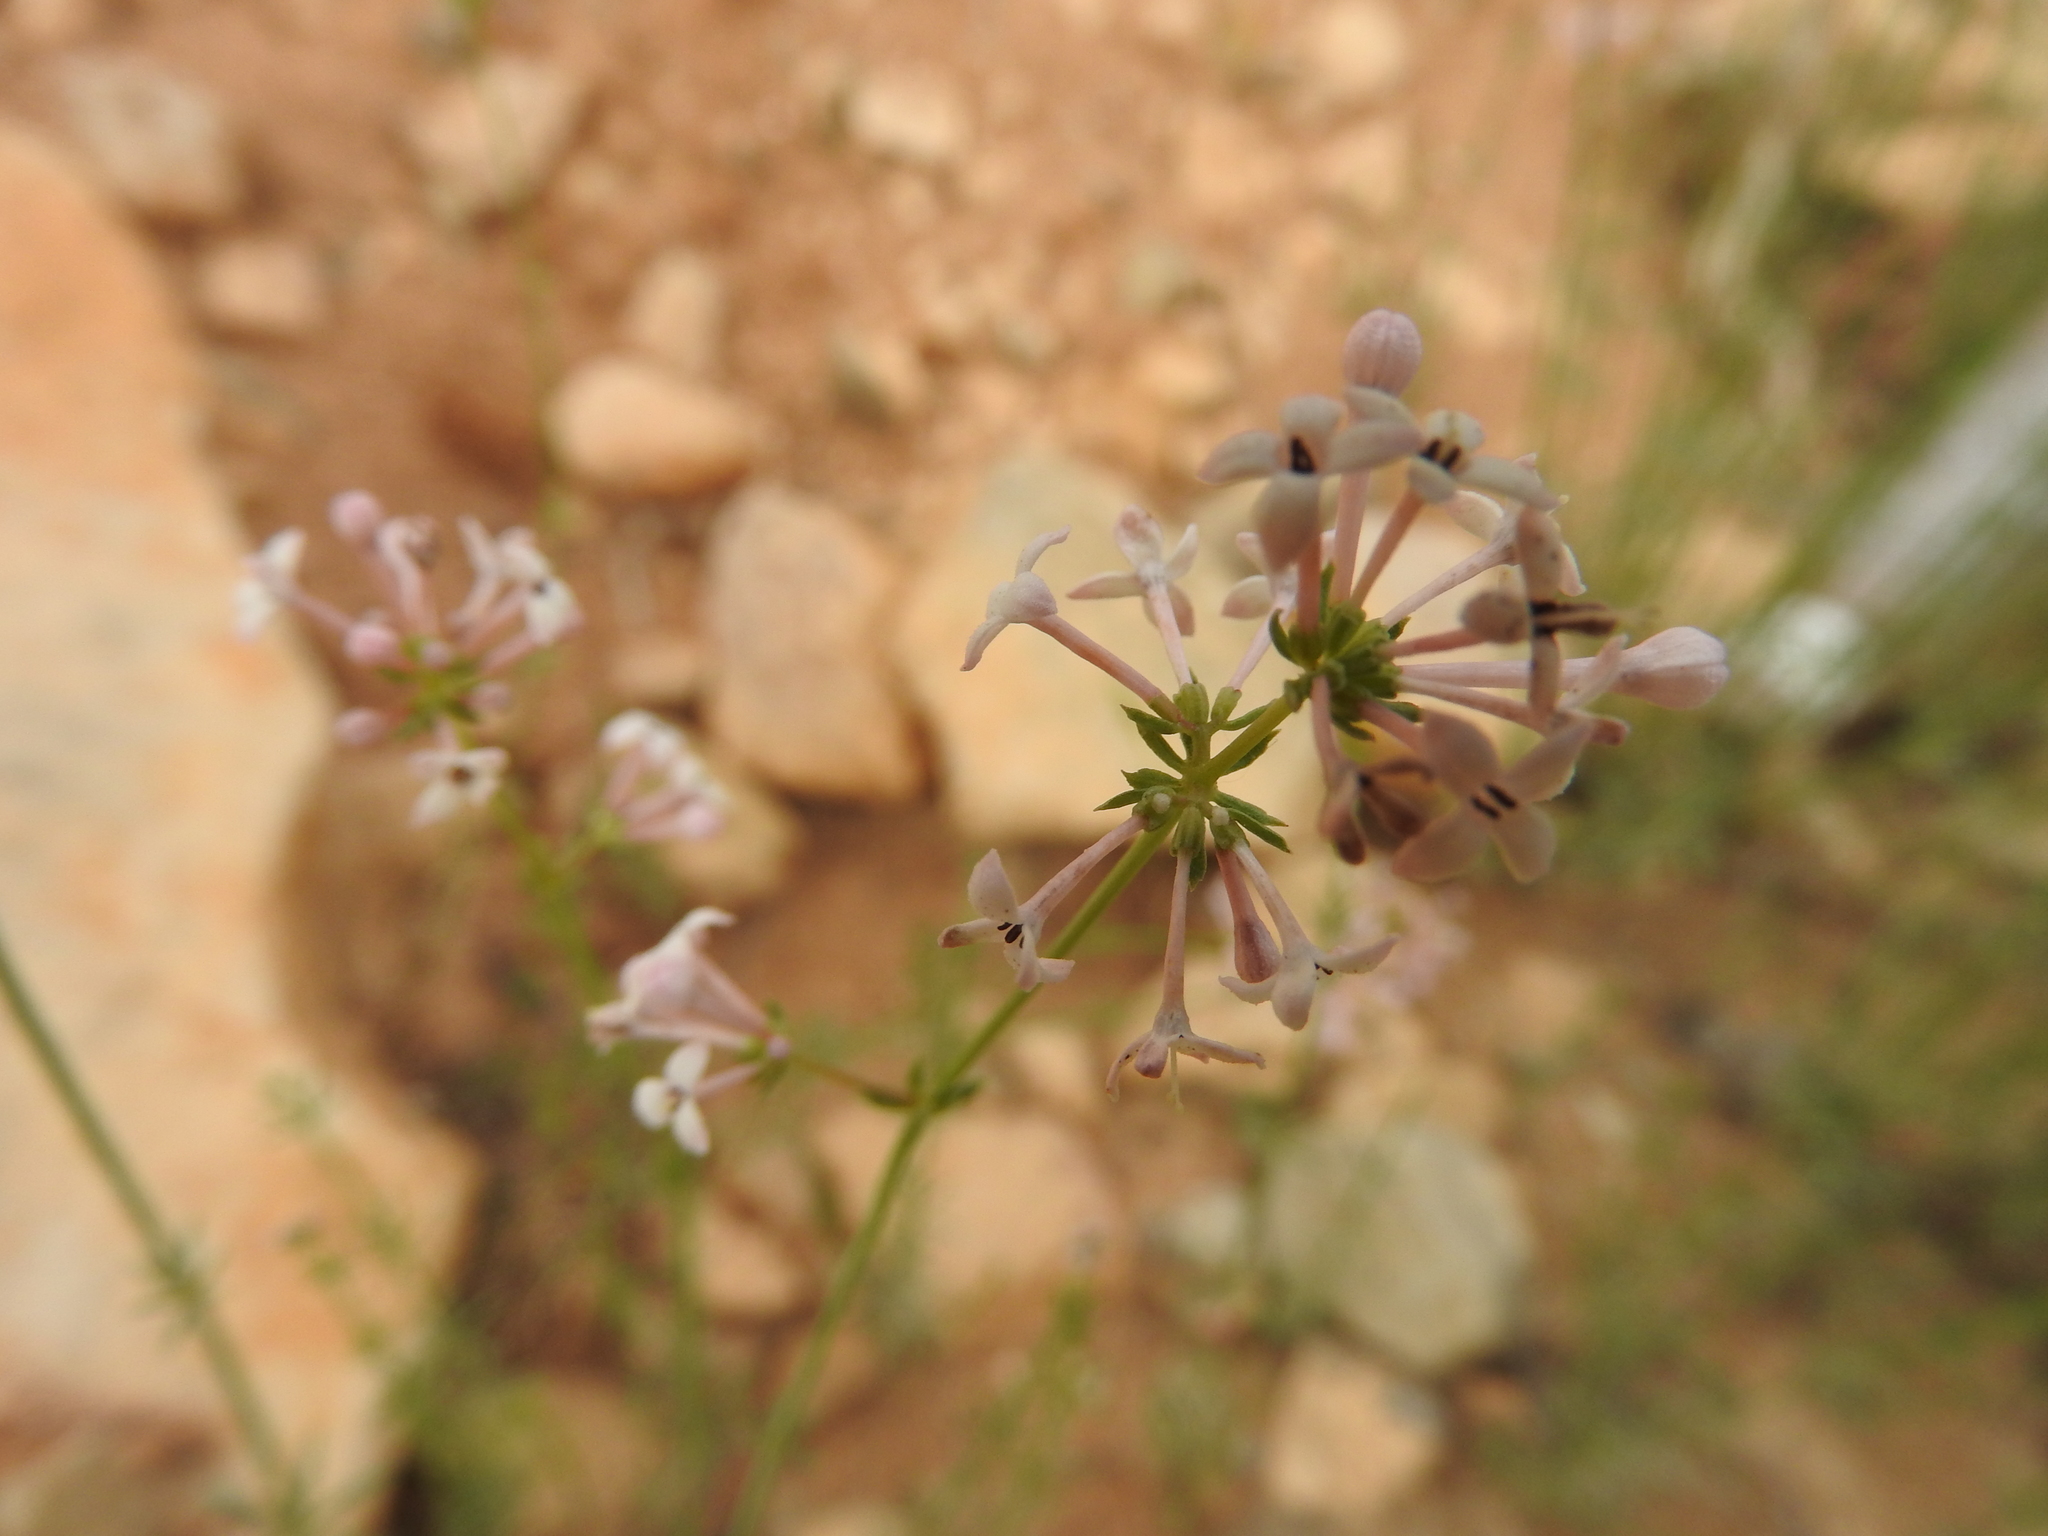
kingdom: Plantae
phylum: Tracheophyta
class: Magnoliopsida
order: Gentianales
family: Rubiaceae
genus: Hexaphylla
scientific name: Hexaphylla hirsuta
